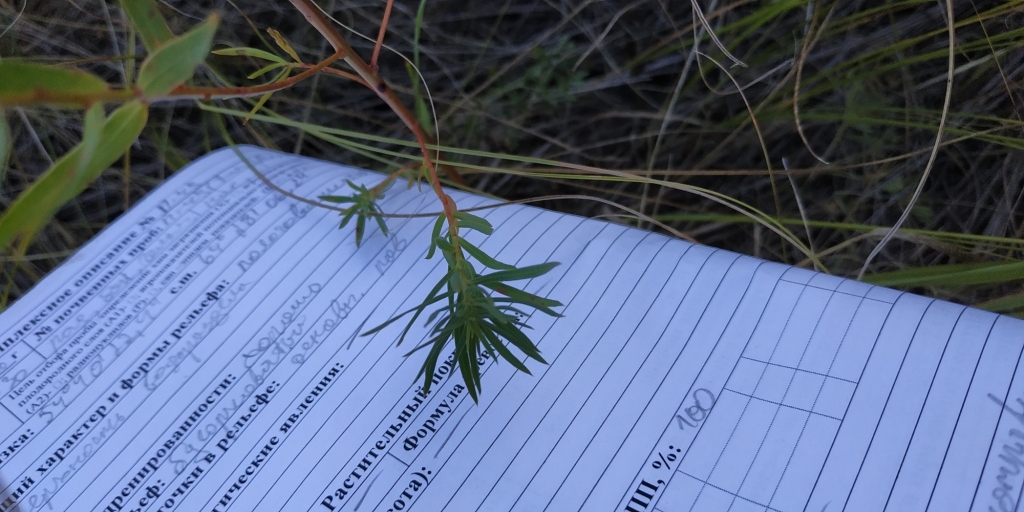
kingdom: Plantae
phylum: Tracheophyta
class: Magnoliopsida
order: Malpighiales
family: Euphorbiaceae
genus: Euphorbia
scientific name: Euphorbia virgata
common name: Leafy spurge
